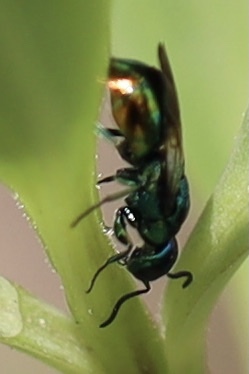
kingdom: Animalia
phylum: Arthropoda
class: Insecta
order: Hymenoptera
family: Chrysididae
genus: Pseudomalus
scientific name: Pseudomalus auratus
